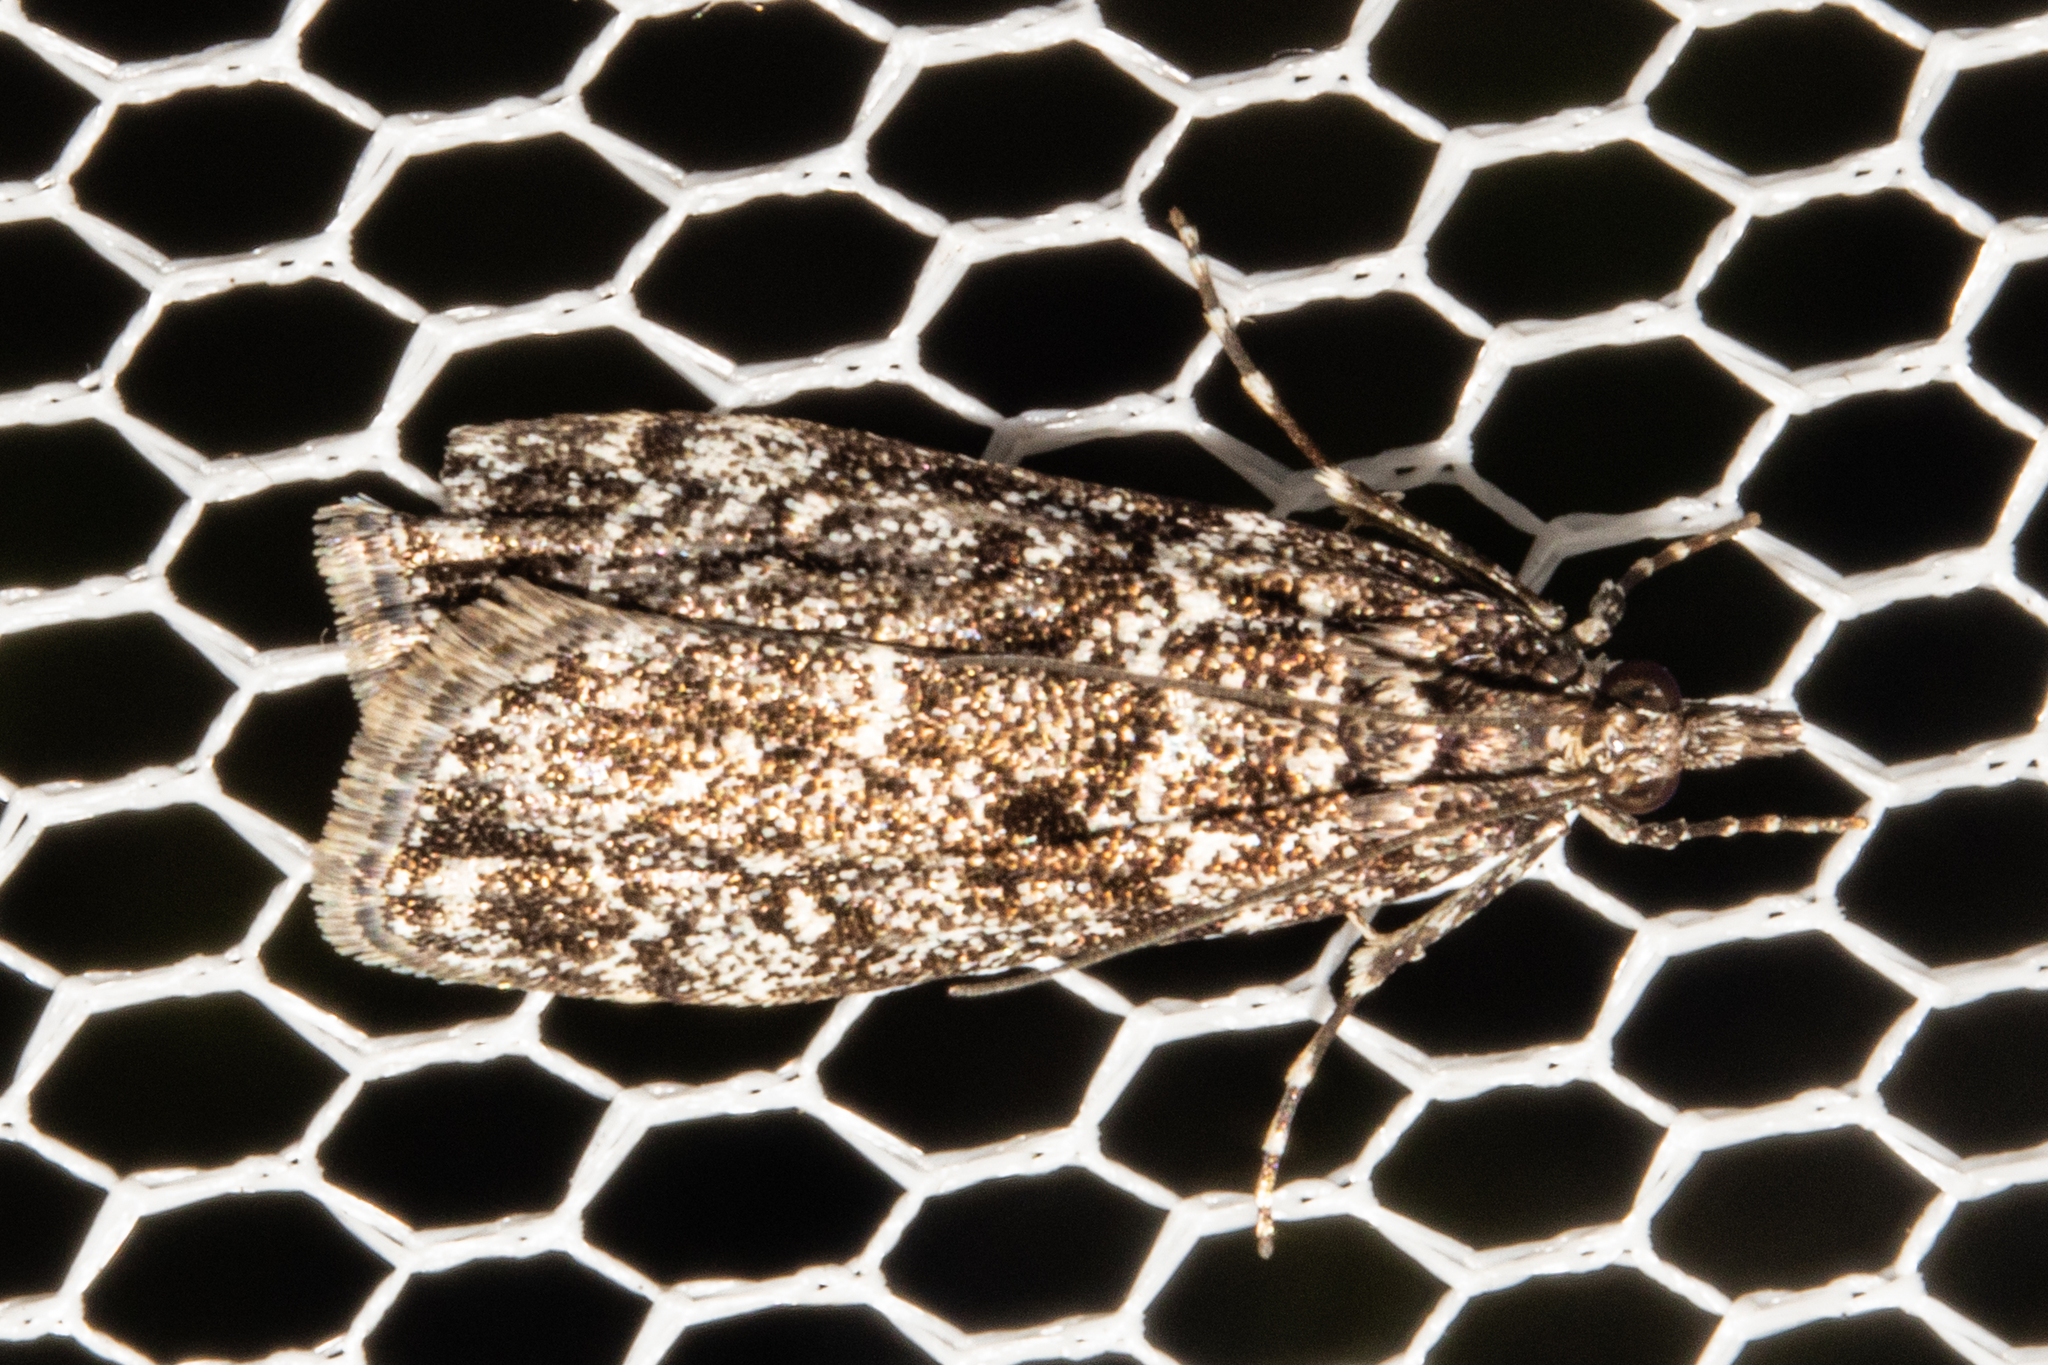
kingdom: Animalia
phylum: Arthropoda
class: Insecta
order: Lepidoptera
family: Crambidae
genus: Eudonia
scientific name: Eudonia philerga
